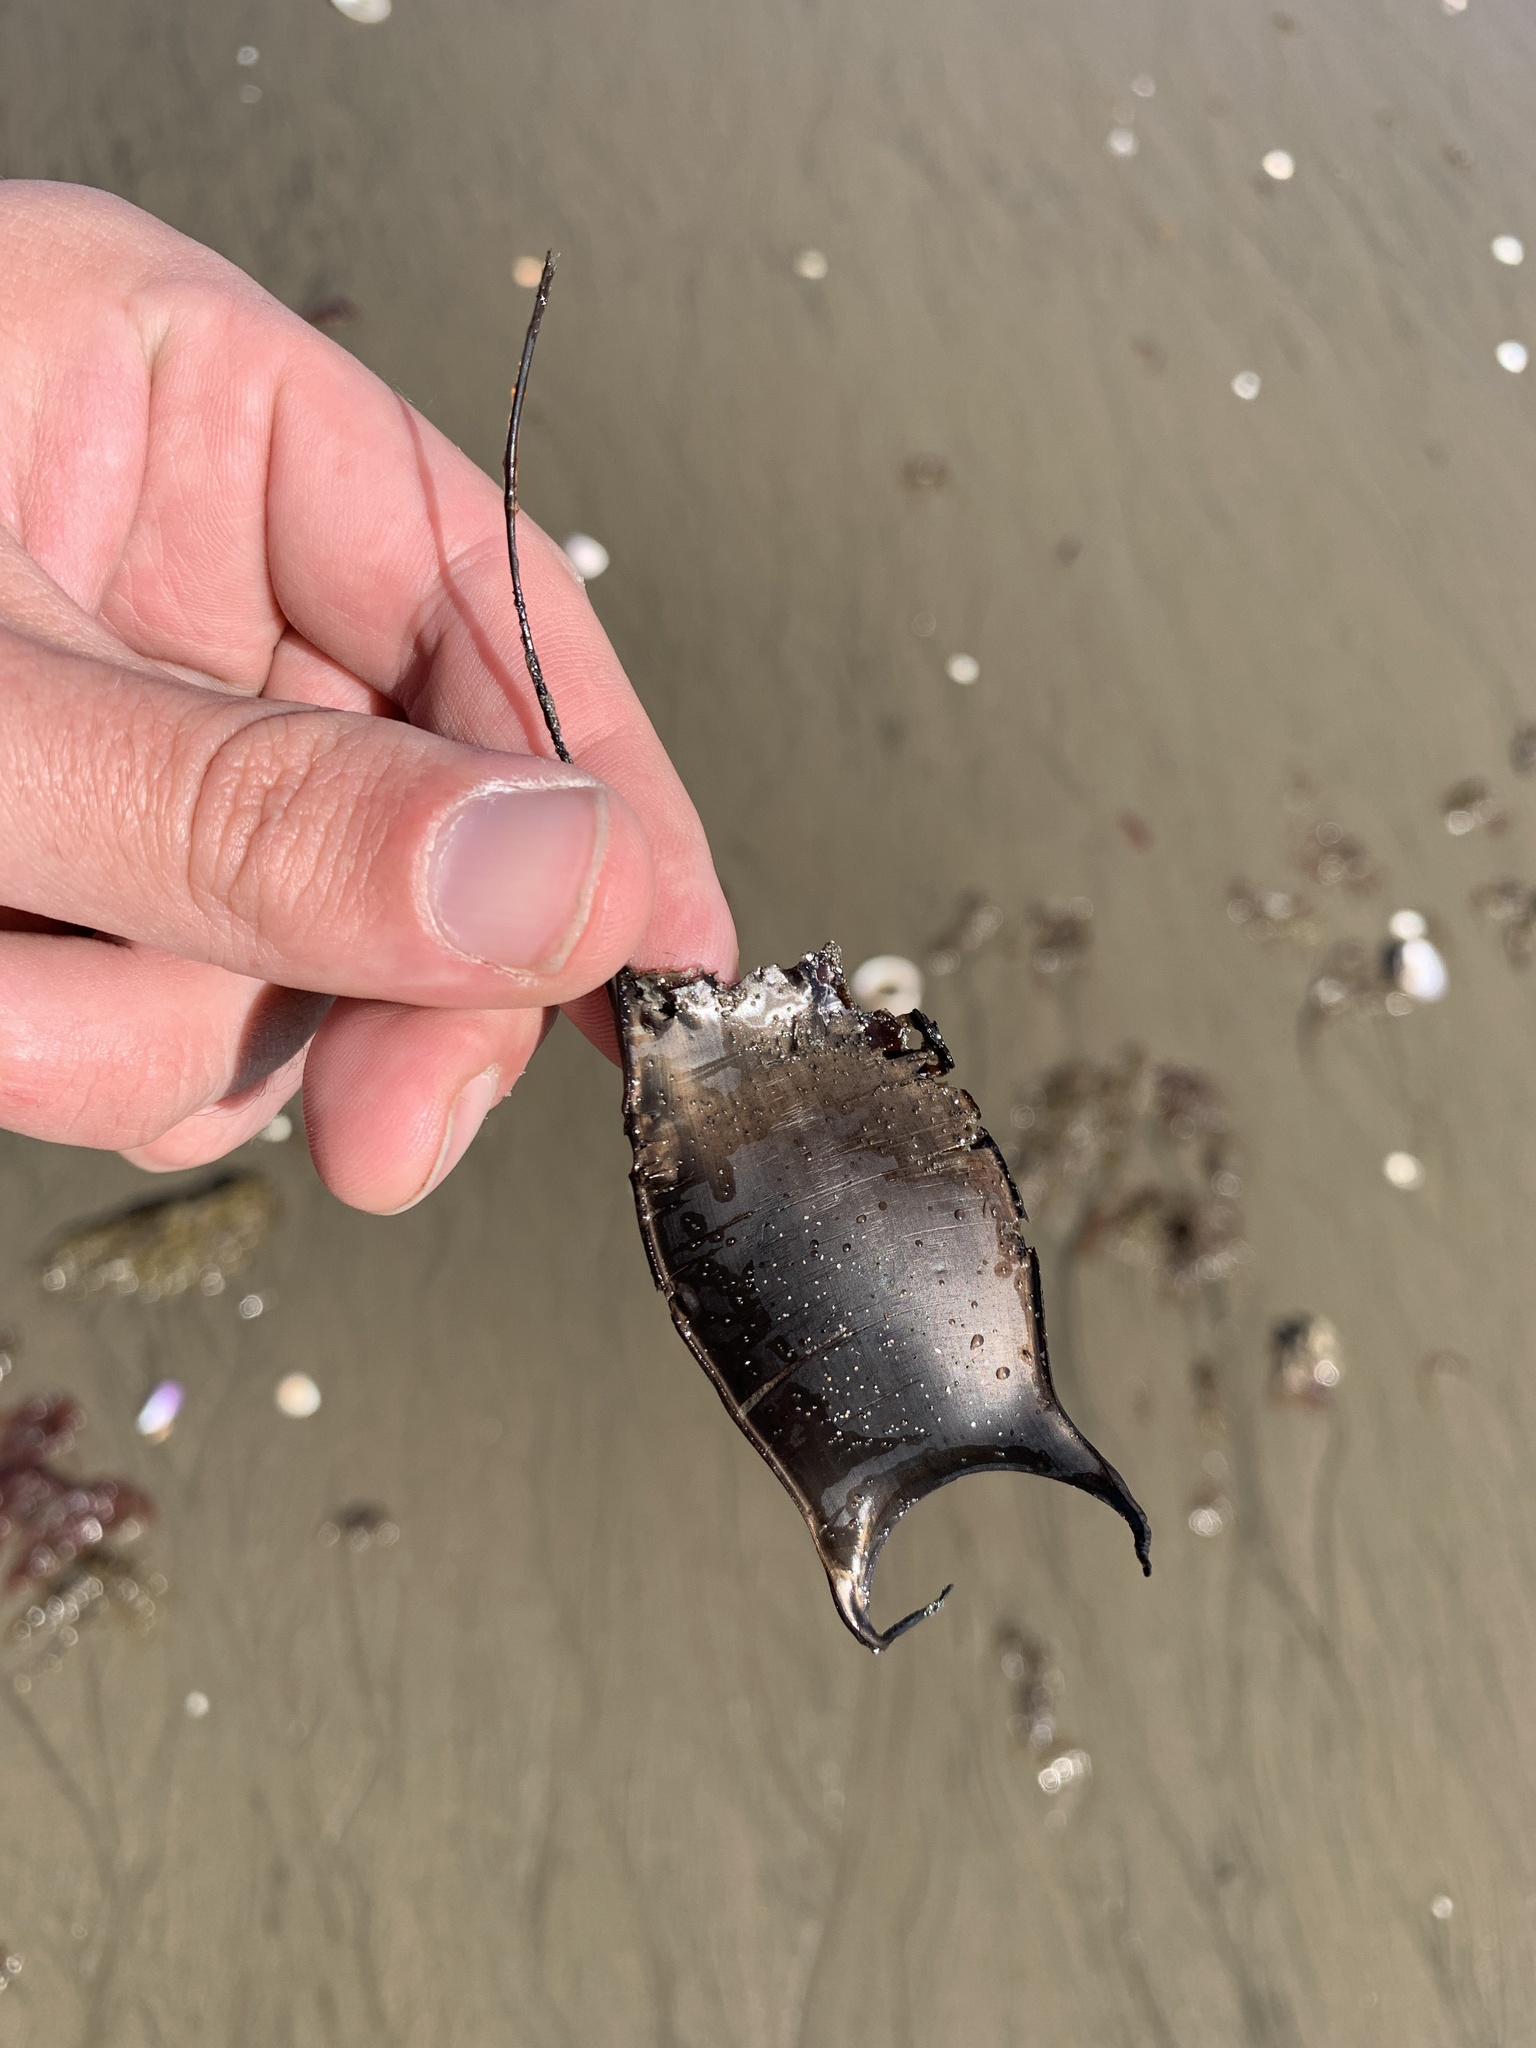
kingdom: Animalia
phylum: Chordata
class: Elasmobranchii
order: Rajiformes
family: Arhynchobatidae
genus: Sympterygia
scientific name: Sympterygia acuta
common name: Bignose fanskate
